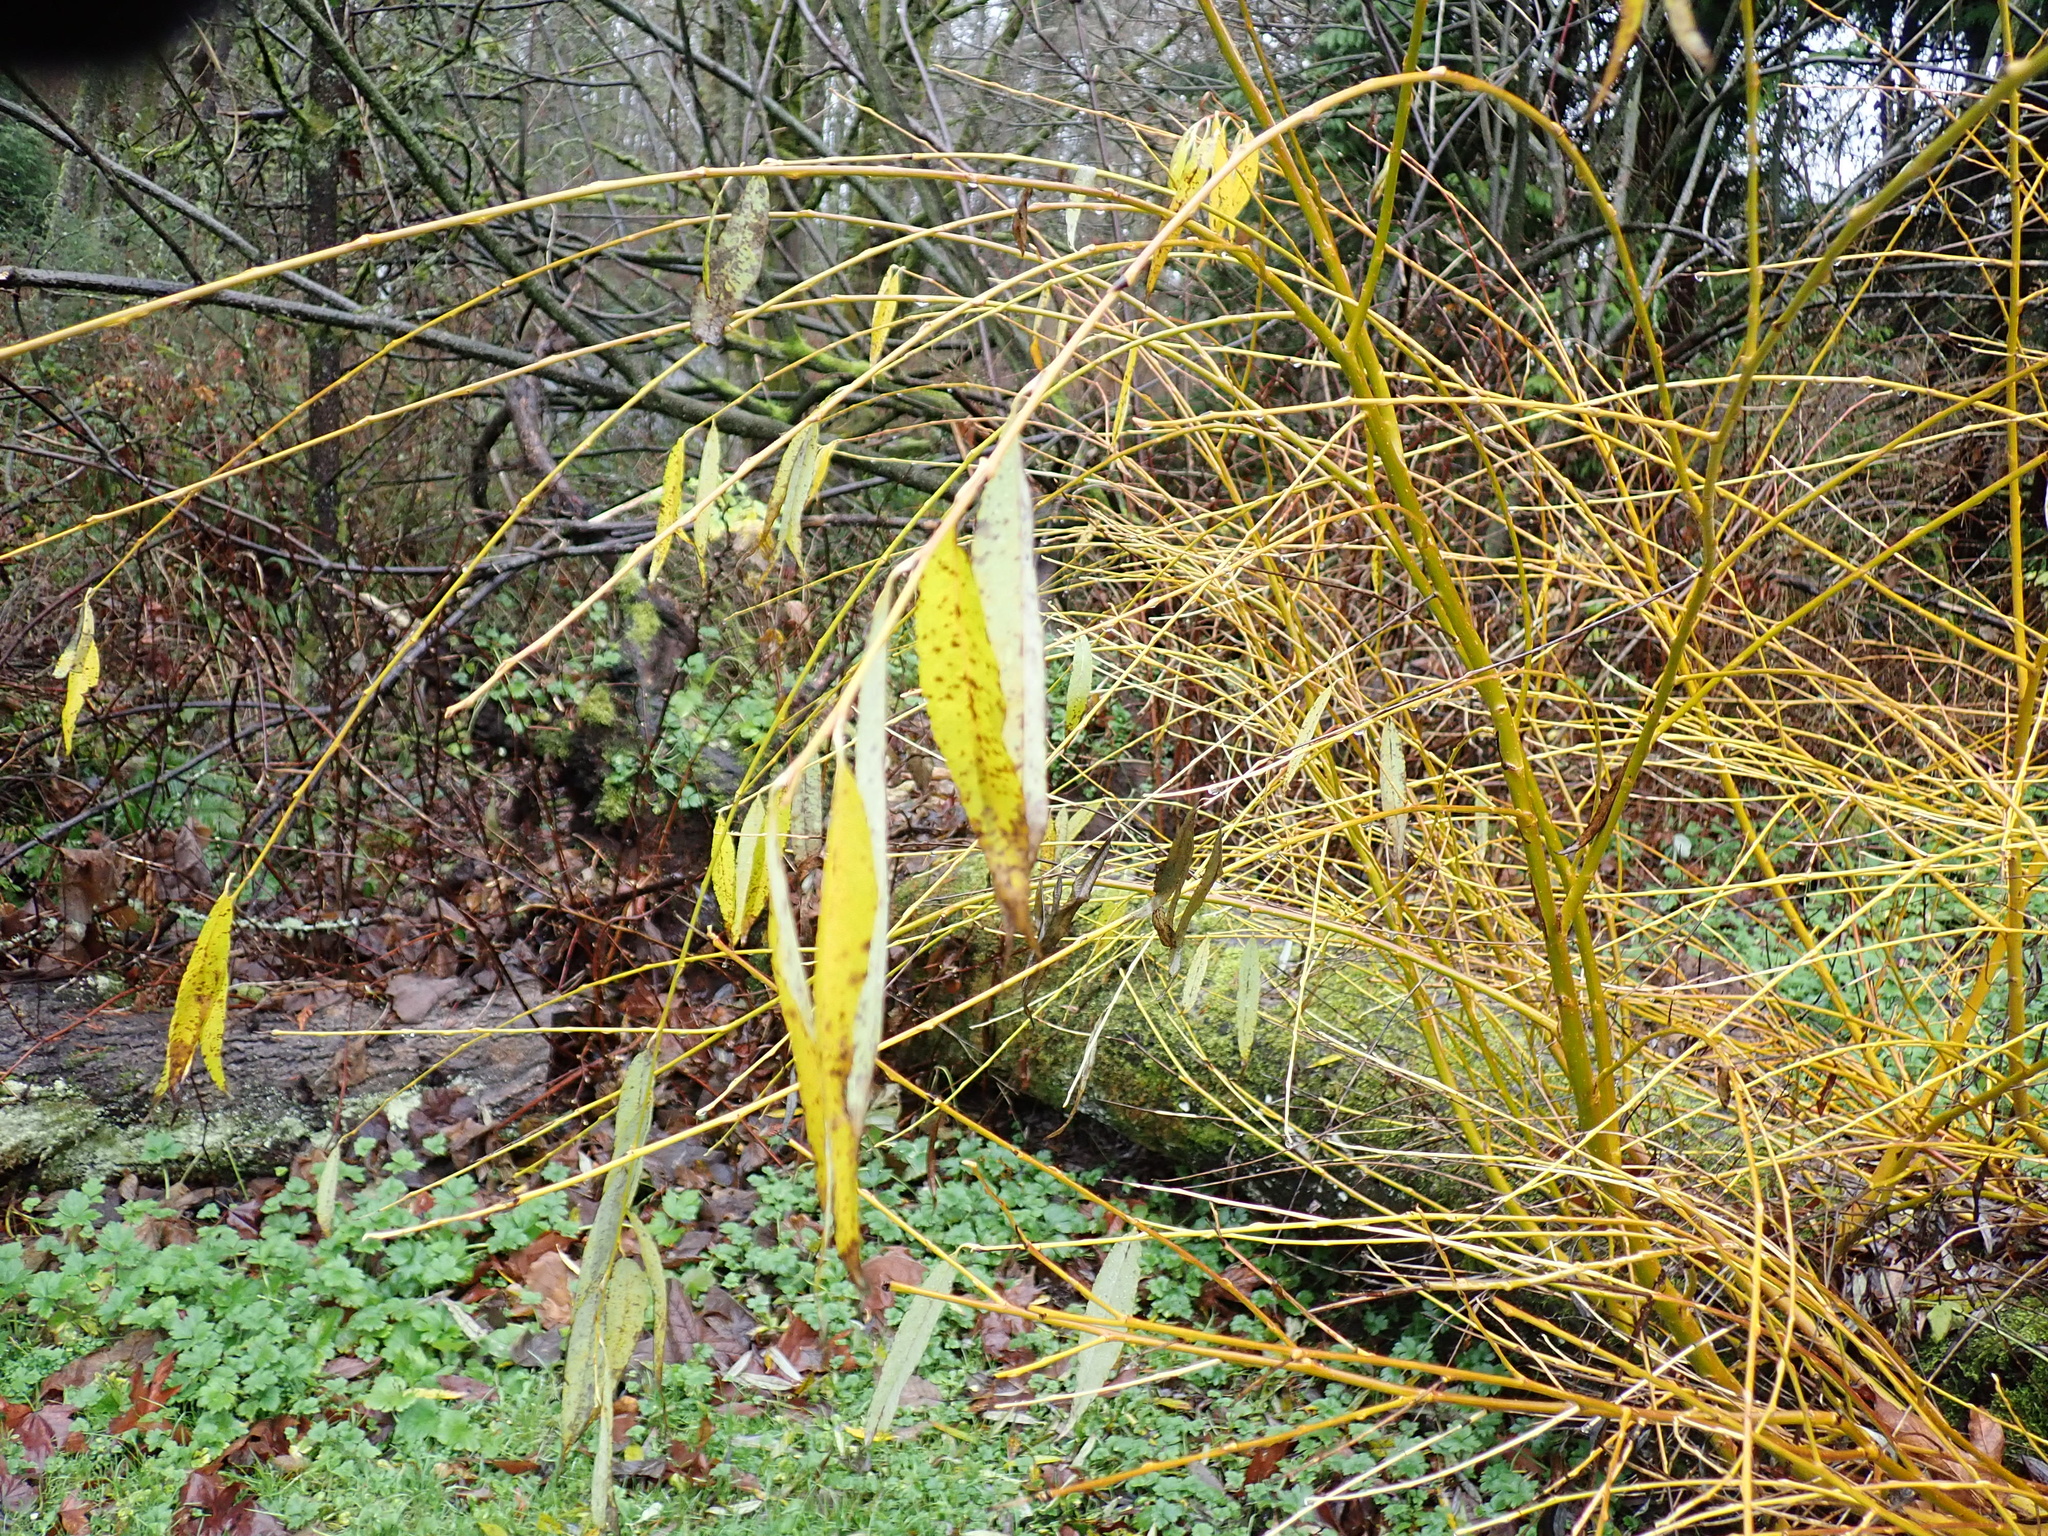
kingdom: Plantae
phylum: Tracheophyta
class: Magnoliopsida
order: Malpighiales
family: Salicaceae
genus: Salix
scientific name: Salix alba
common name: White willow
